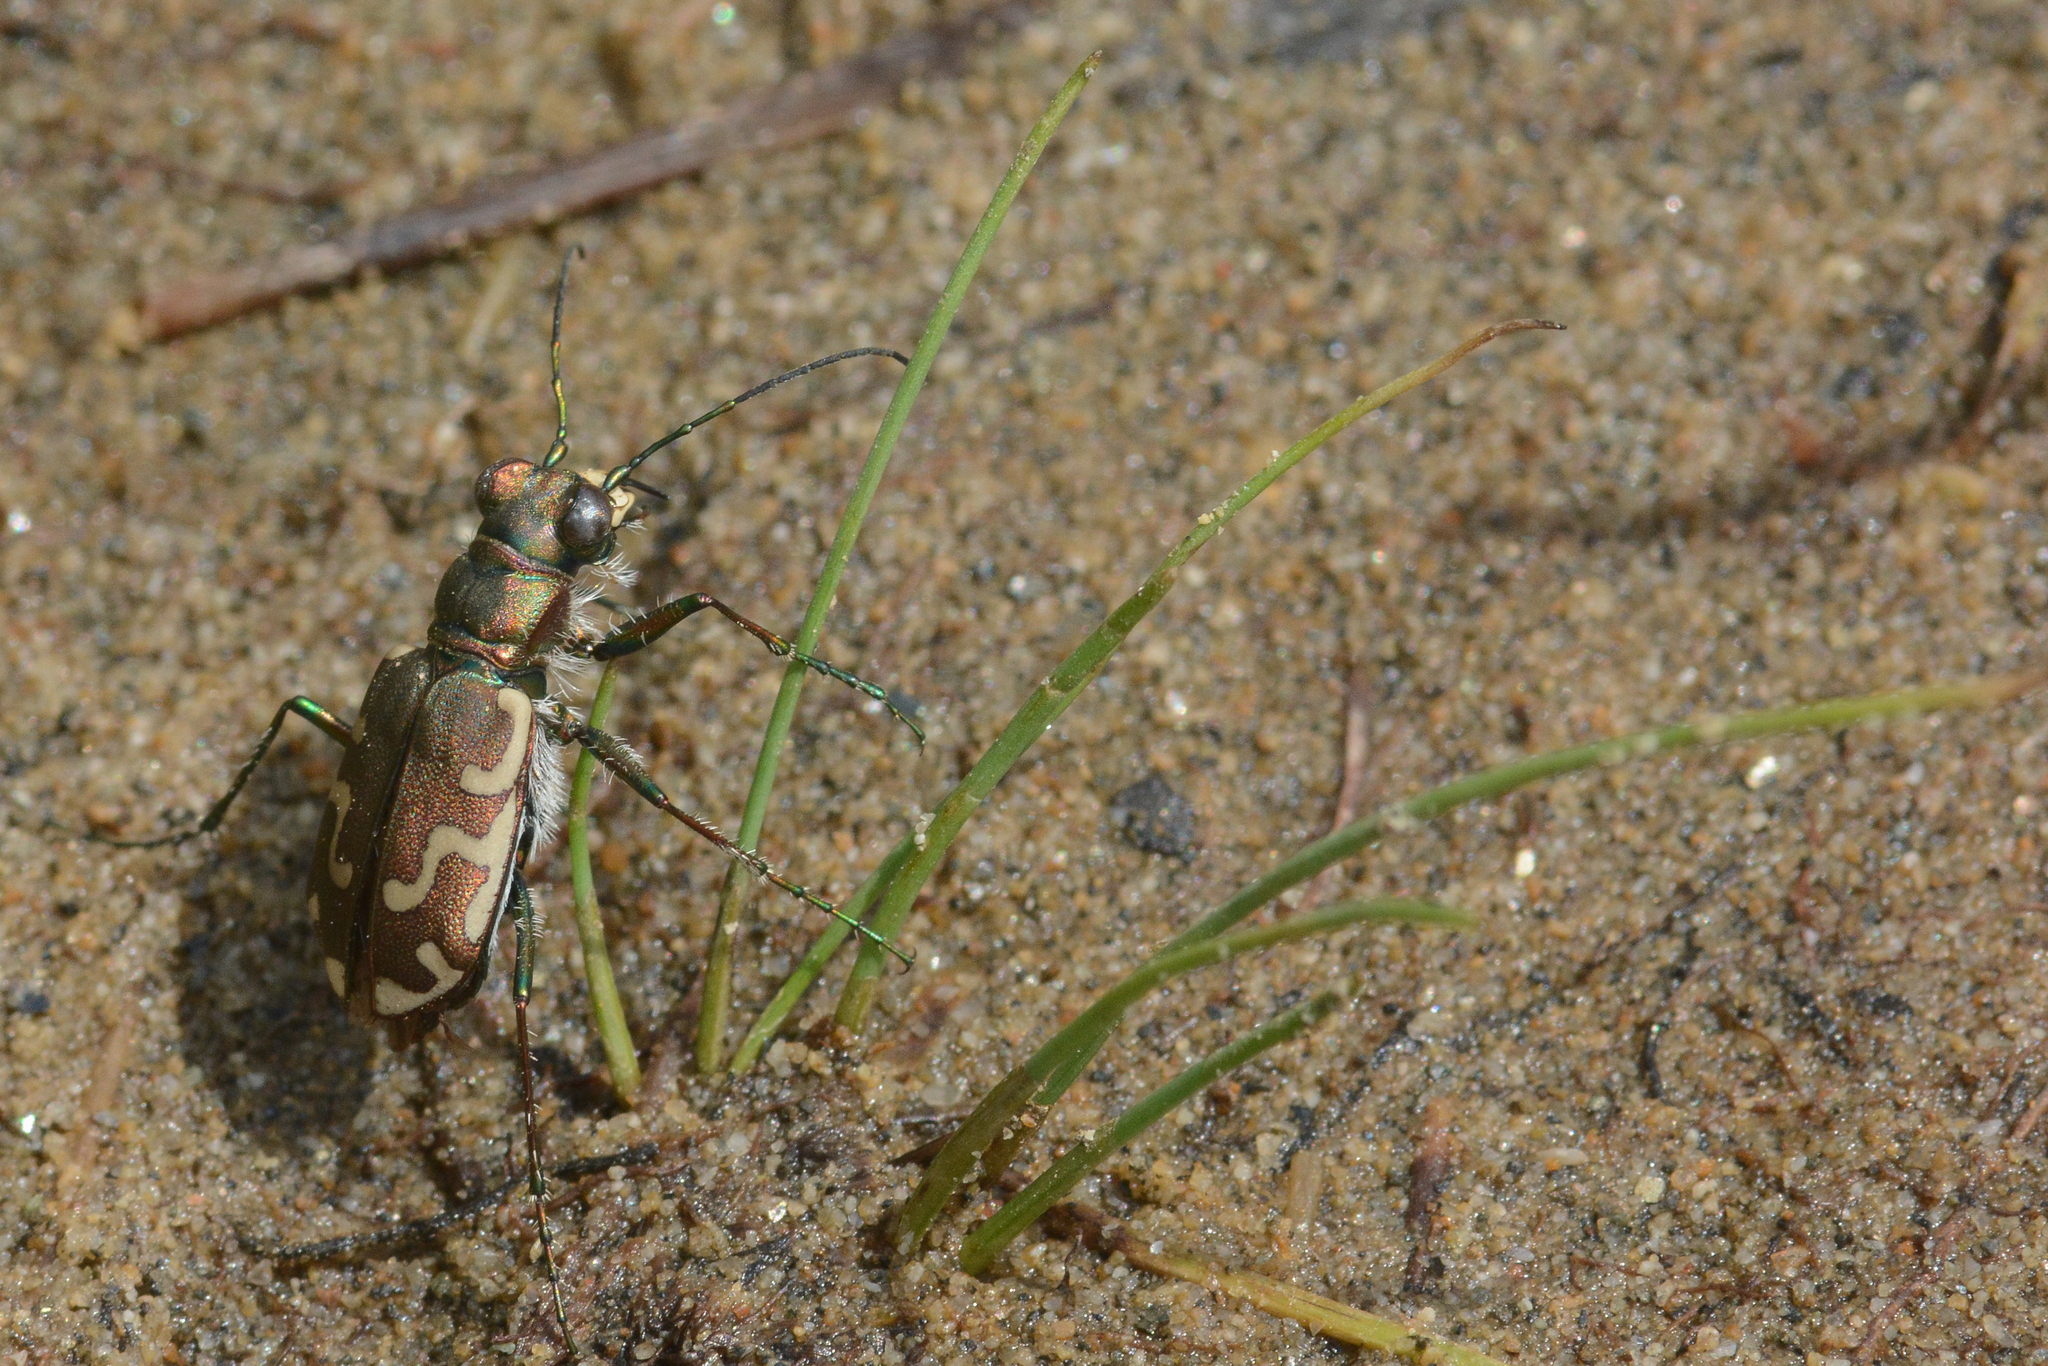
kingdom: Animalia
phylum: Arthropoda
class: Insecta
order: Coleoptera
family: Carabidae
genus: Cicindela
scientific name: Cicindela repanda
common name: Bronzed tiger beetle
